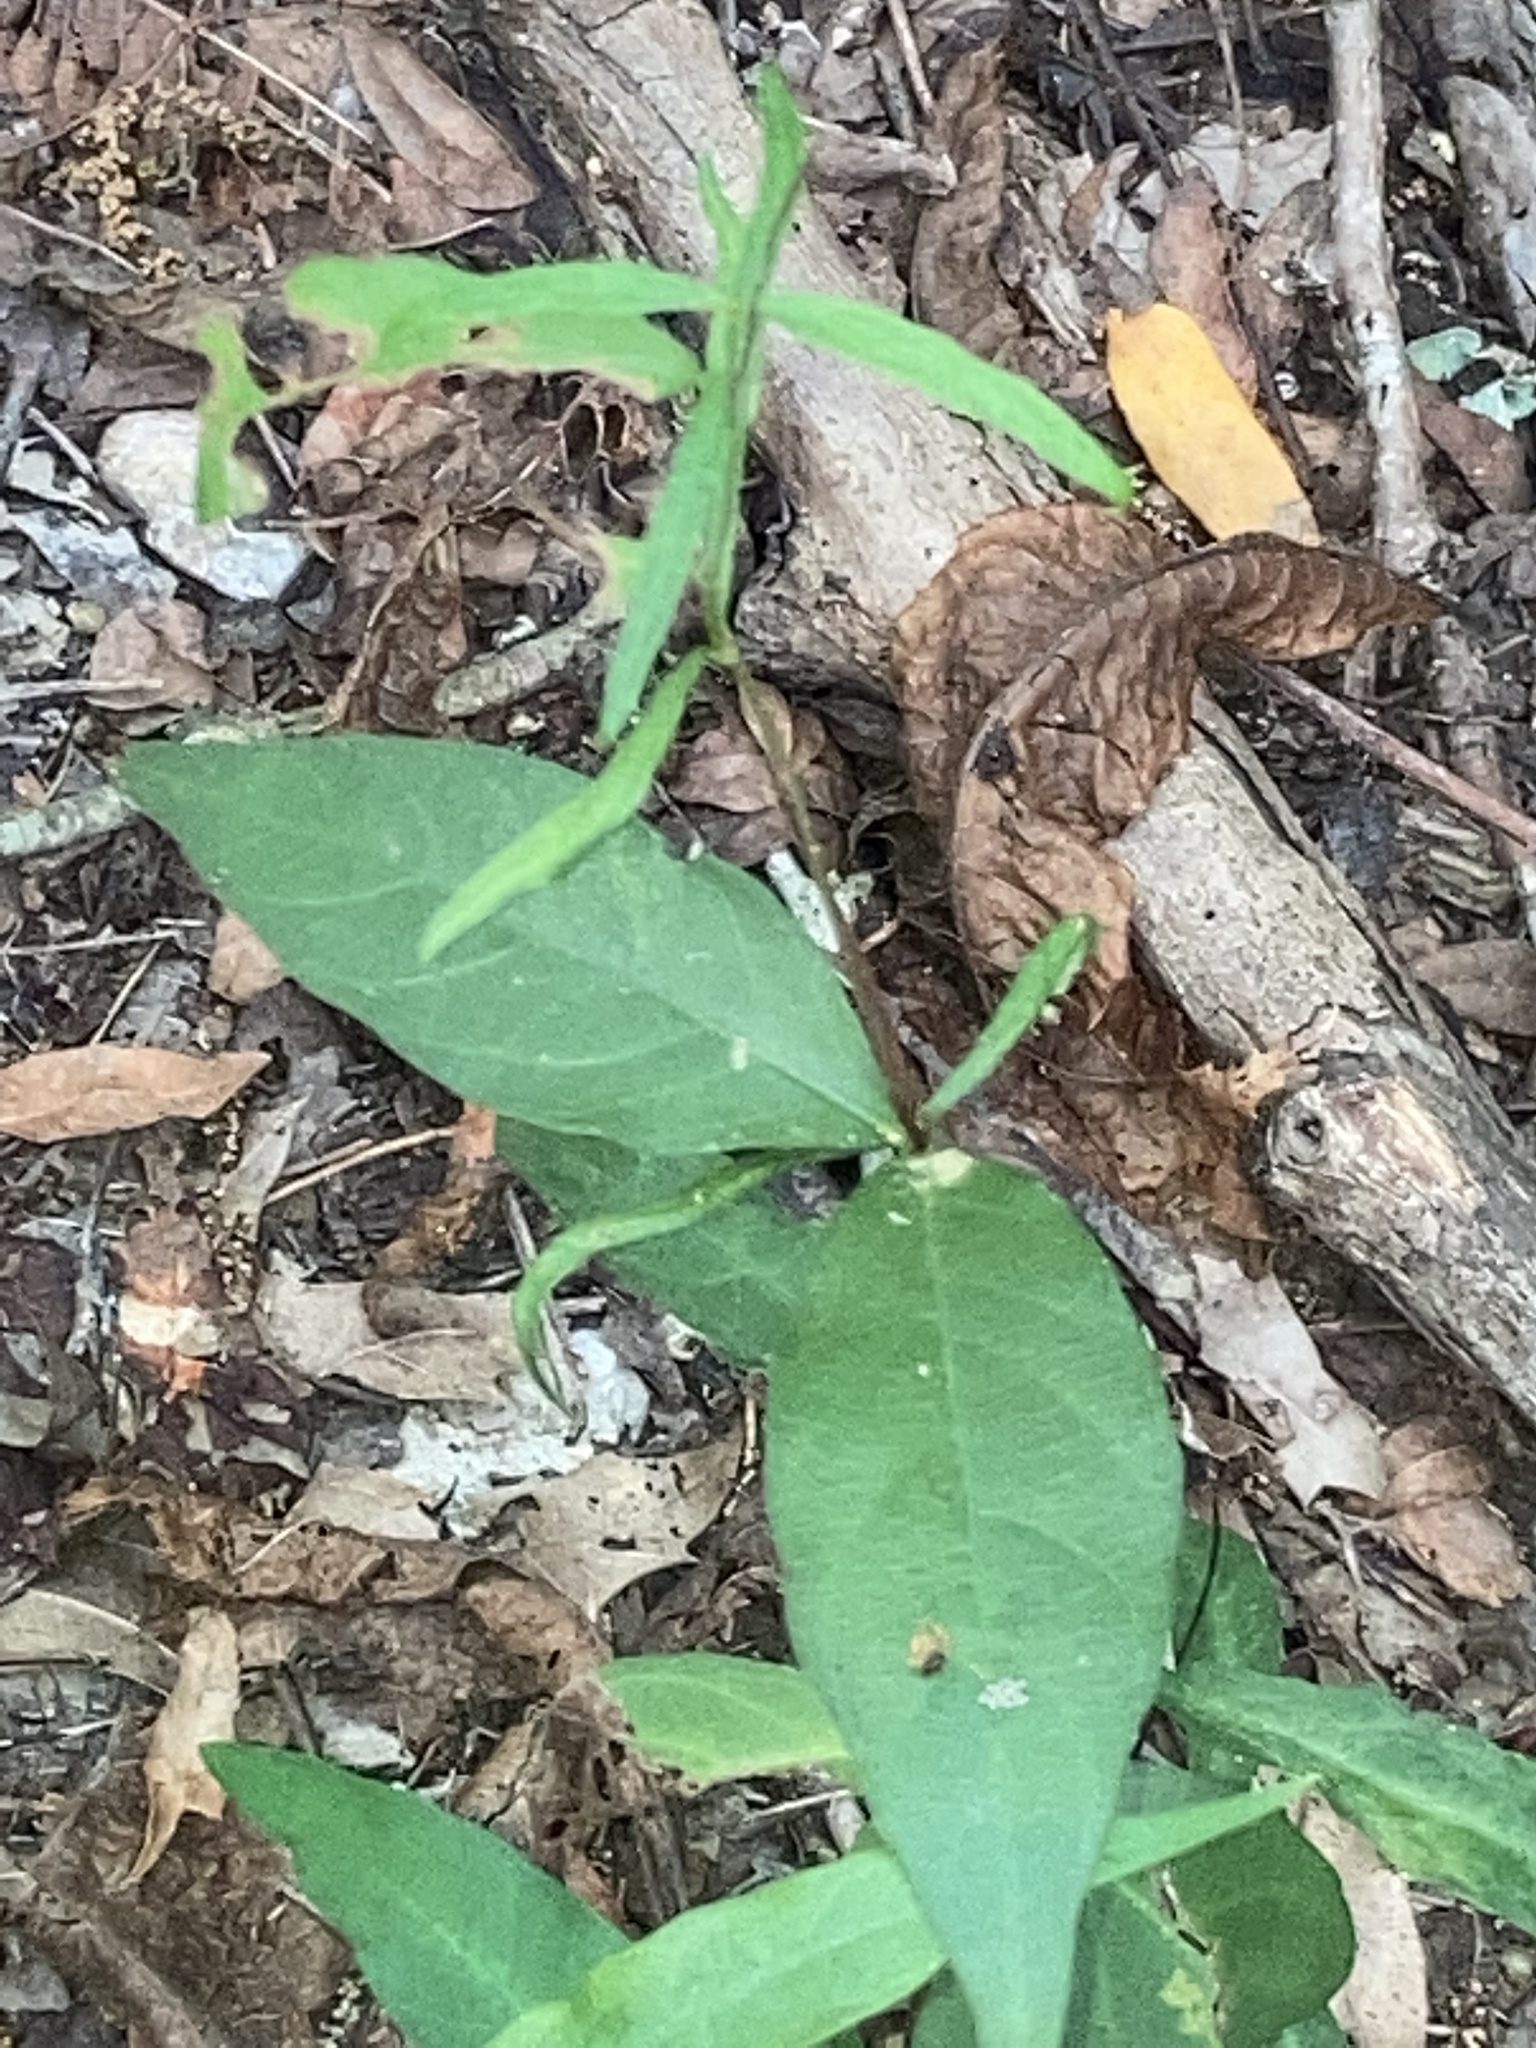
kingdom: Plantae
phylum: Tracheophyta
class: Magnoliopsida
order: Gentianales
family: Apocynaceae
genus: Thyrsanthella
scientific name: Thyrsanthella difformis
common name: Climbing dogbane
